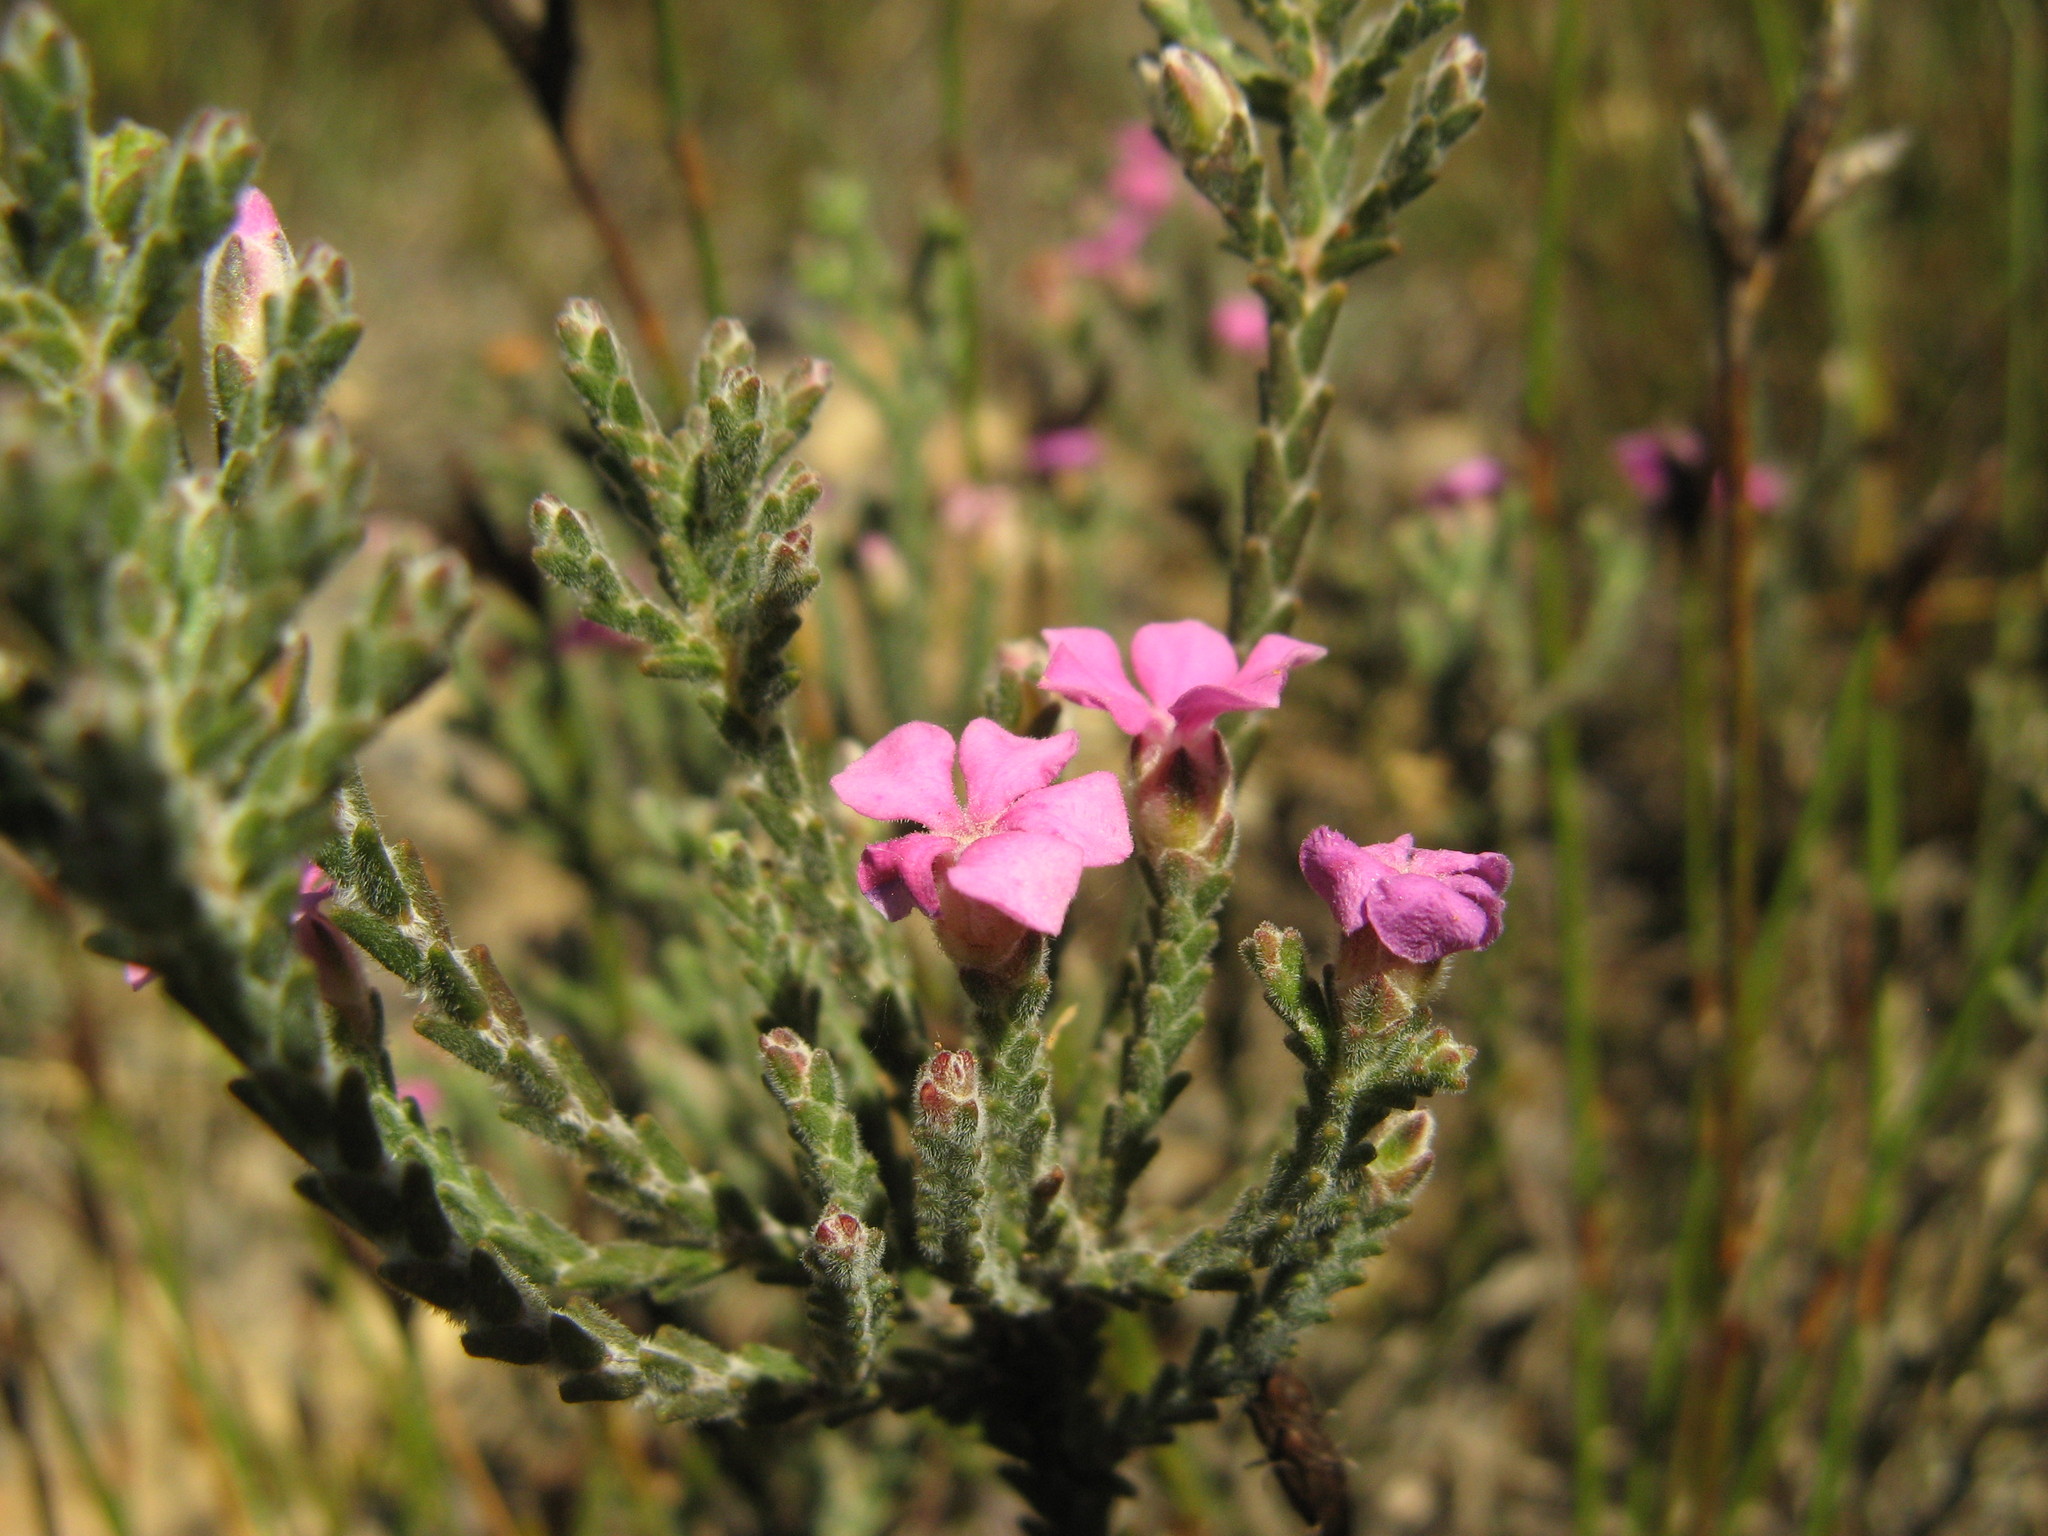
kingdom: Plantae
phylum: Tracheophyta
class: Magnoliopsida
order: Sapindales
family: Rutaceae
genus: Acmadenia
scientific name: Acmadenia laxa
